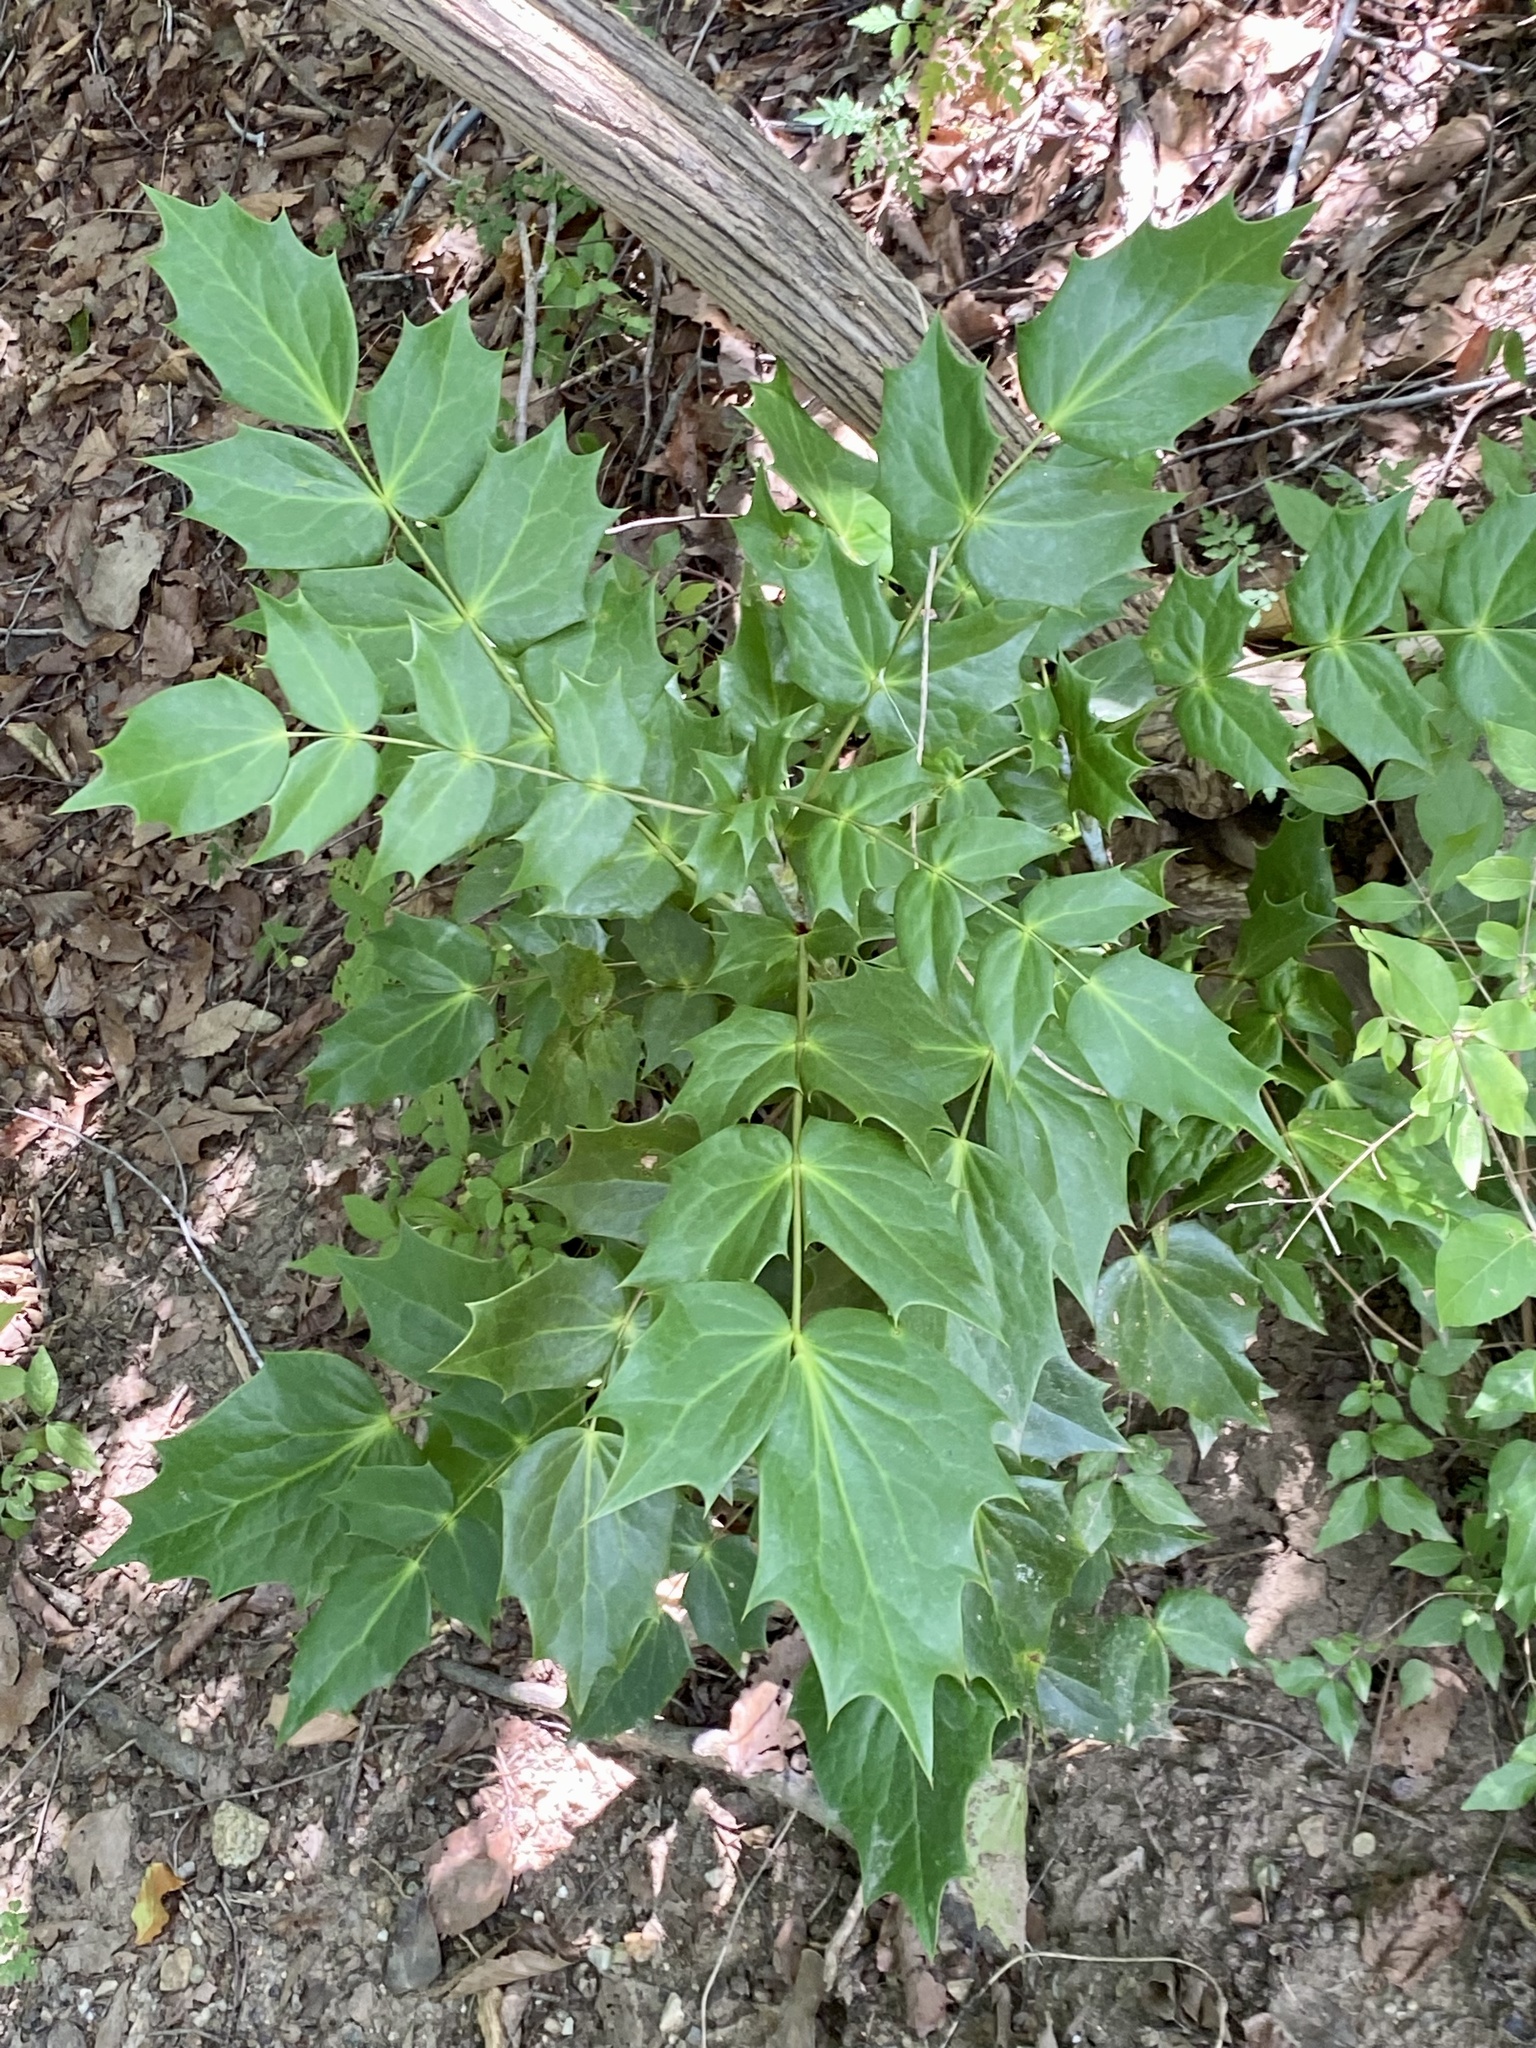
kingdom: Plantae
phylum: Tracheophyta
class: Magnoliopsida
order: Ranunculales
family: Berberidaceae
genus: Mahonia
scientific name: Mahonia bealei
